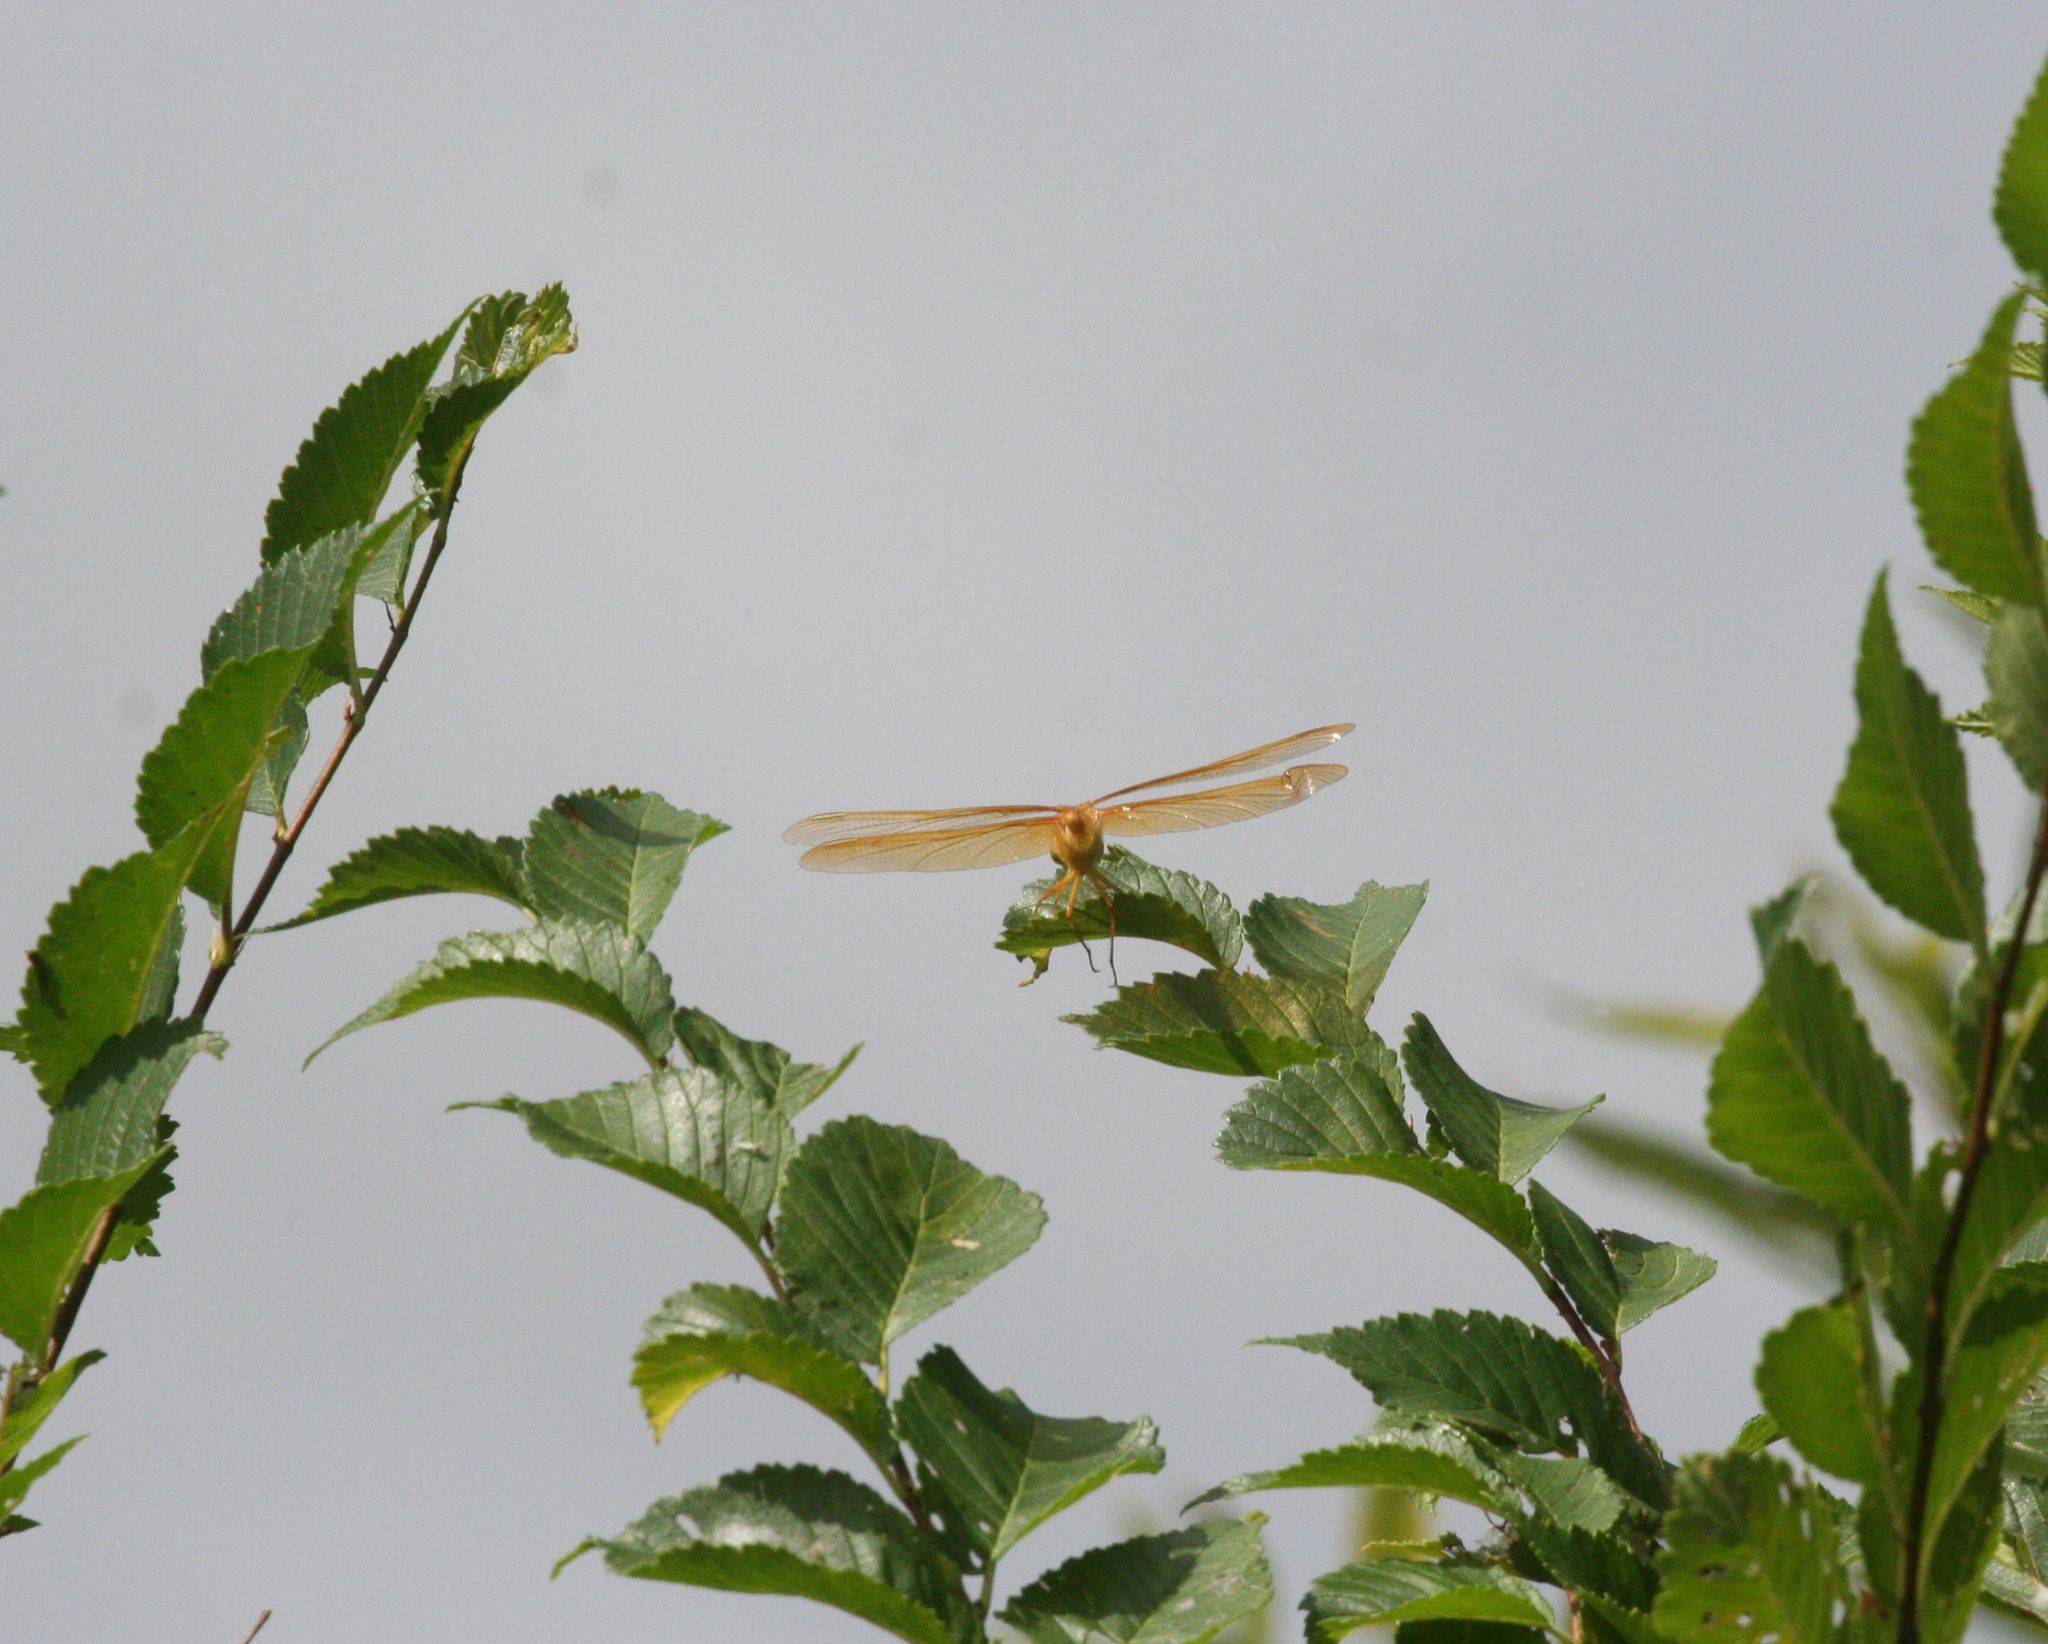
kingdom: Animalia
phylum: Arthropoda
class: Insecta
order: Odonata
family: Libellulidae
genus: Sympetrum
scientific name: Sympetrum uniforme
